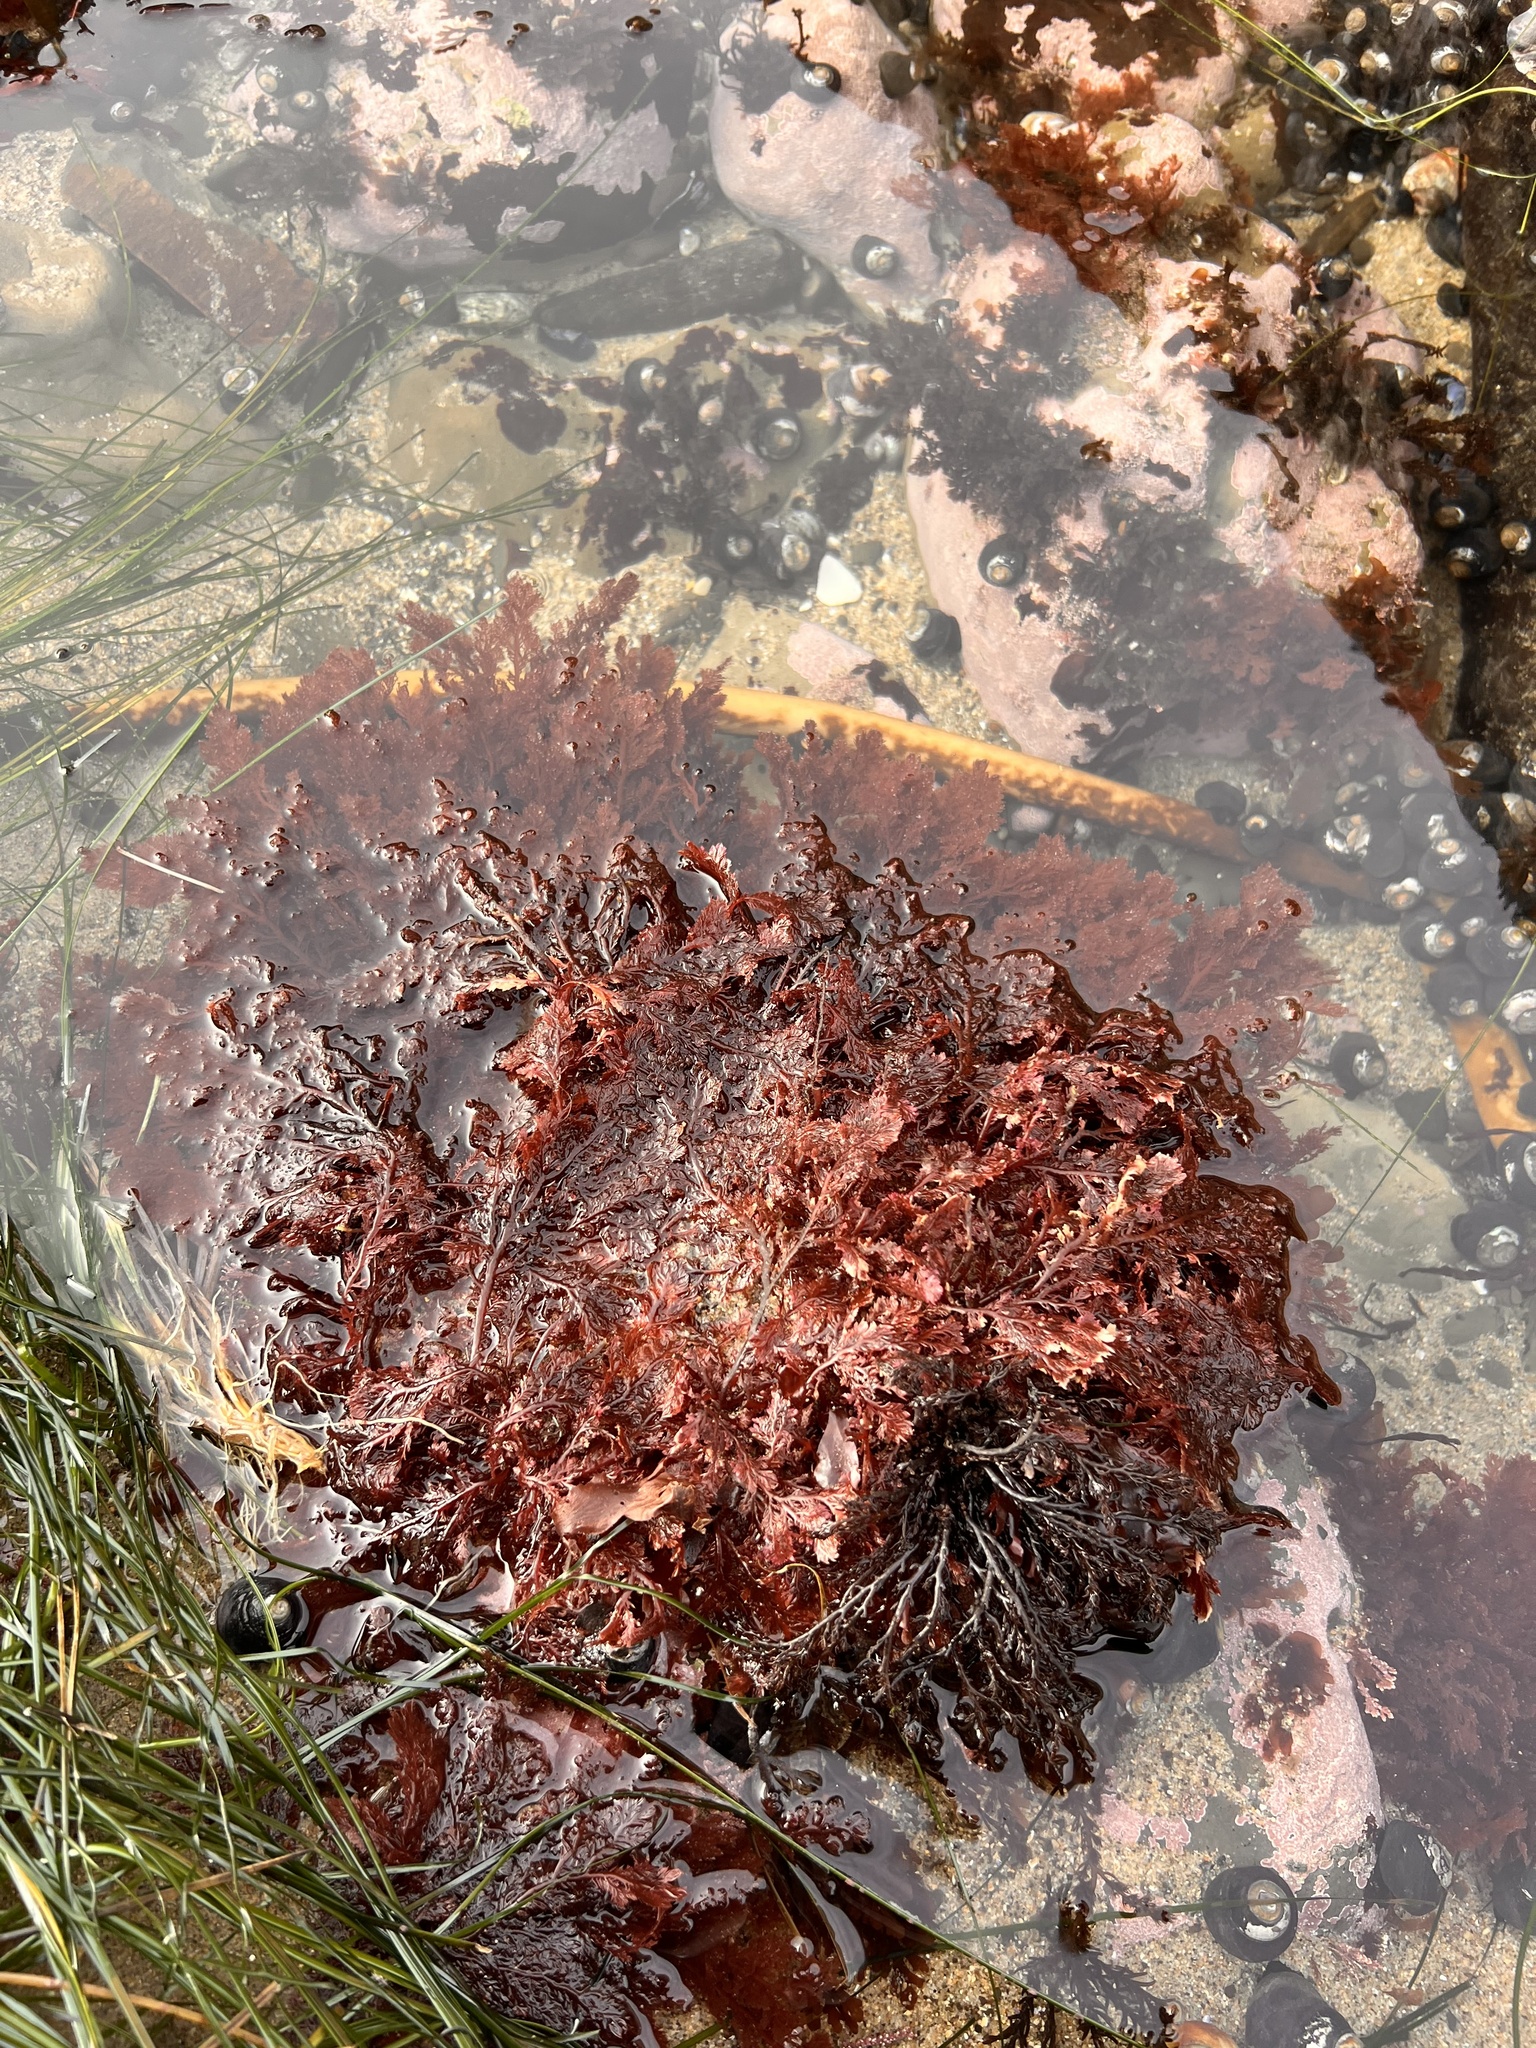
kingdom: Plantae
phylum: Rhodophyta
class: Florideophyceae
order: Ceramiales
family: Ceramiaceae
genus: Microcladia
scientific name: Microcladia coulteri
